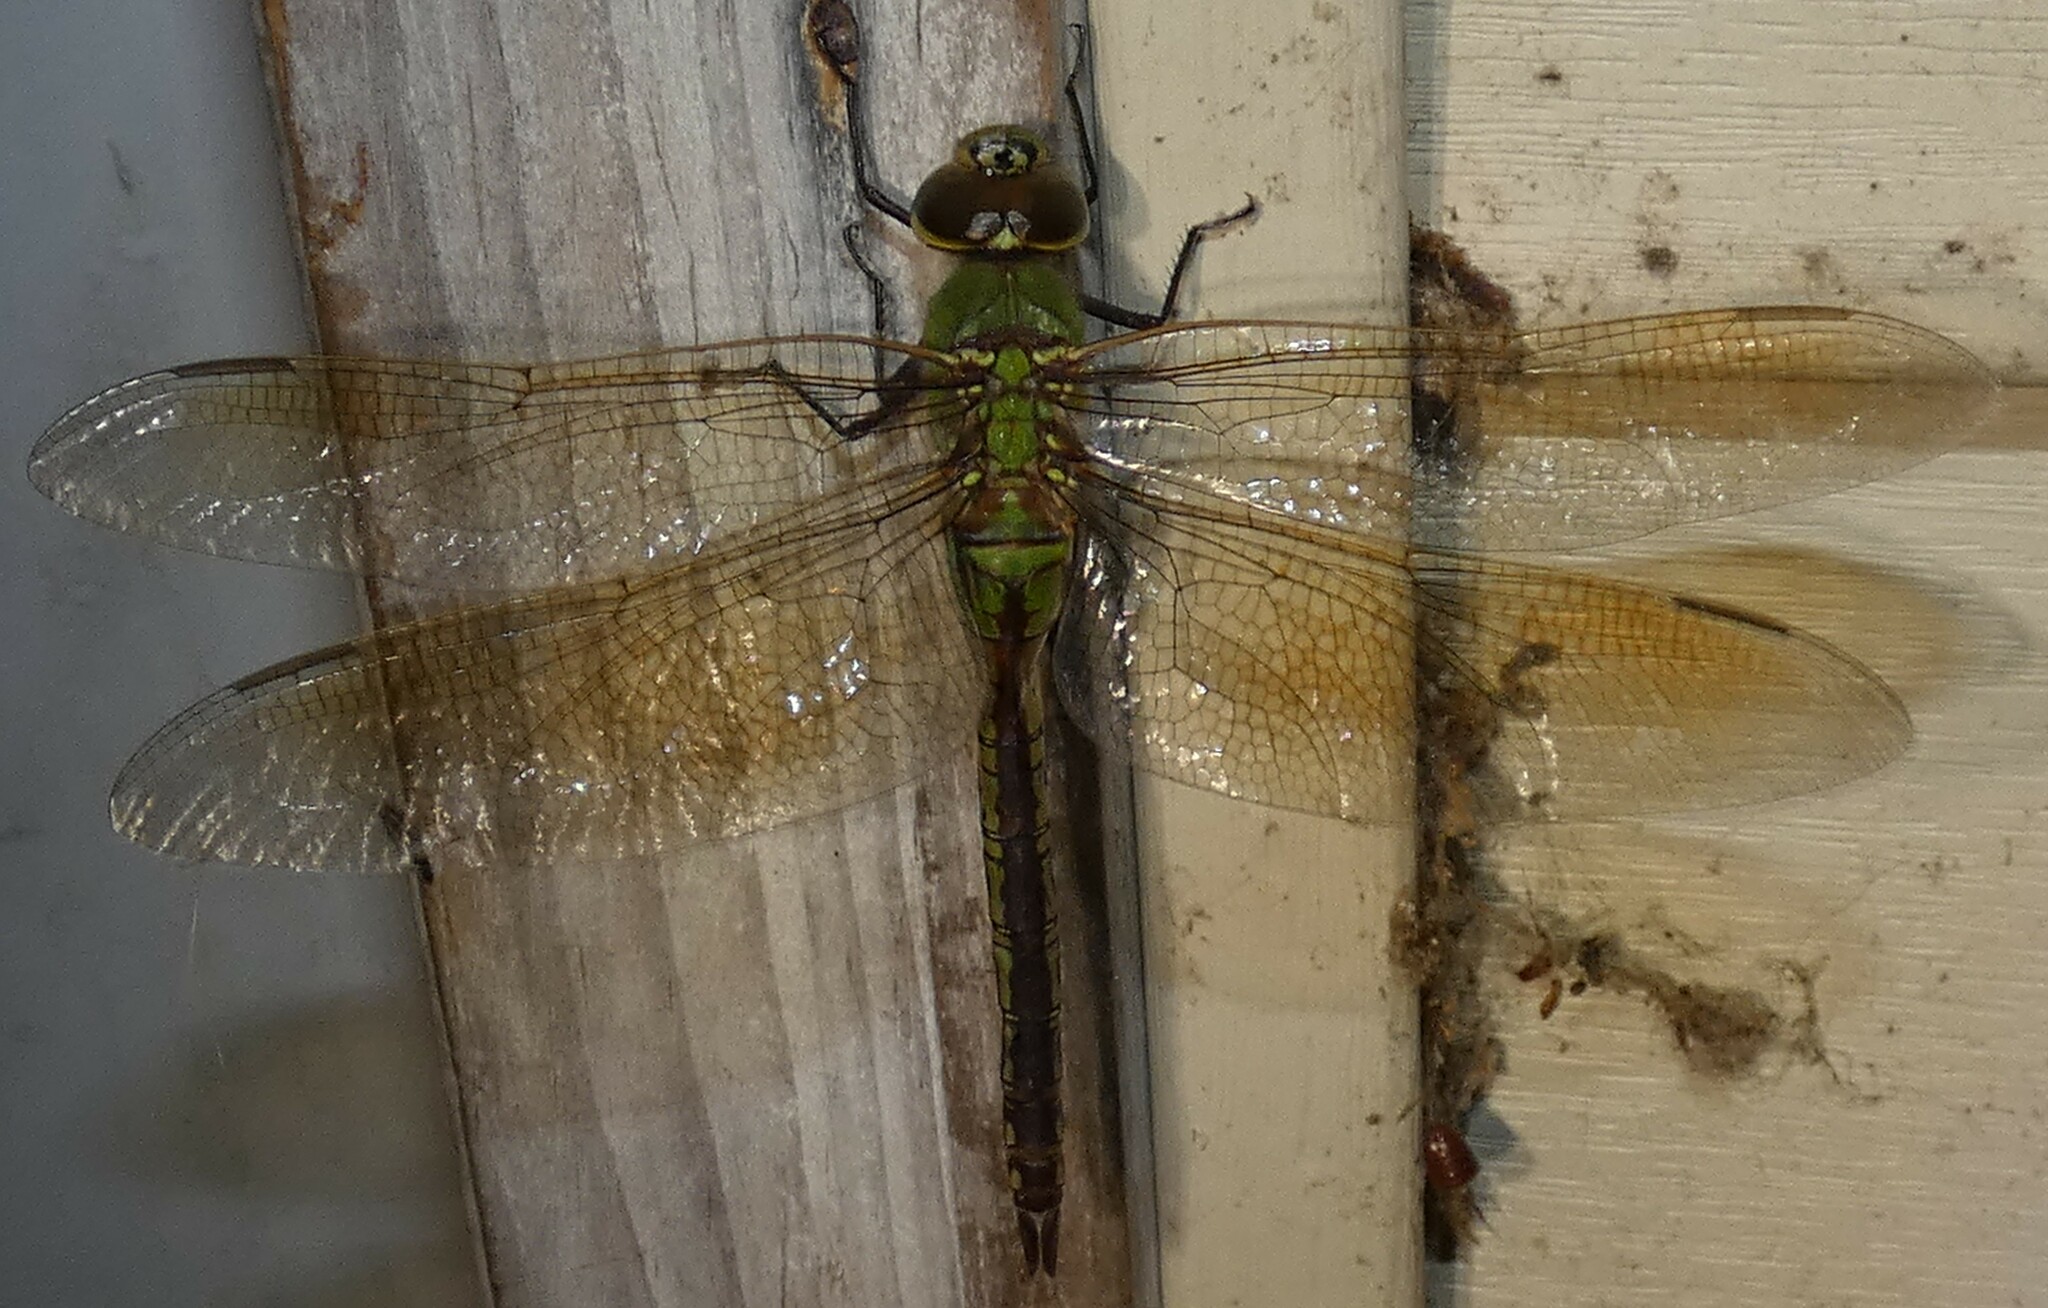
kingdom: Animalia
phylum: Arthropoda
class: Insecta
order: Odonata
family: Aeshnidae
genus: Anax
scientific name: Anax junius
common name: Common green darner
